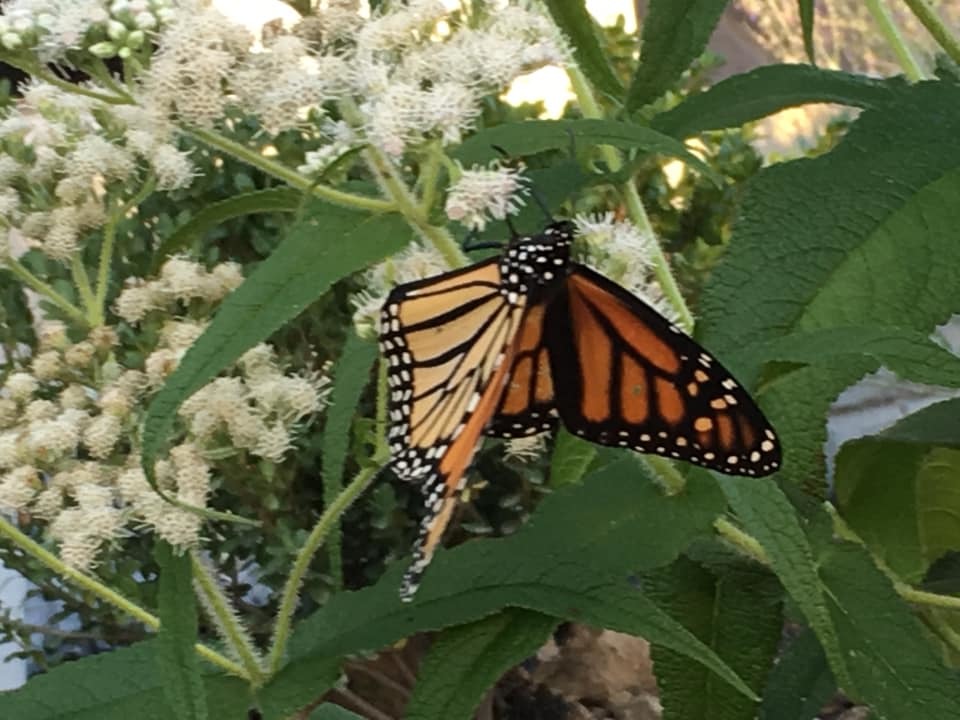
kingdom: Animalia
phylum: Arthropoda
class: Insecta
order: Lepidoptera
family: Nymphalidae
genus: Danaus
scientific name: Danaus plexippus
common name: Monarch
